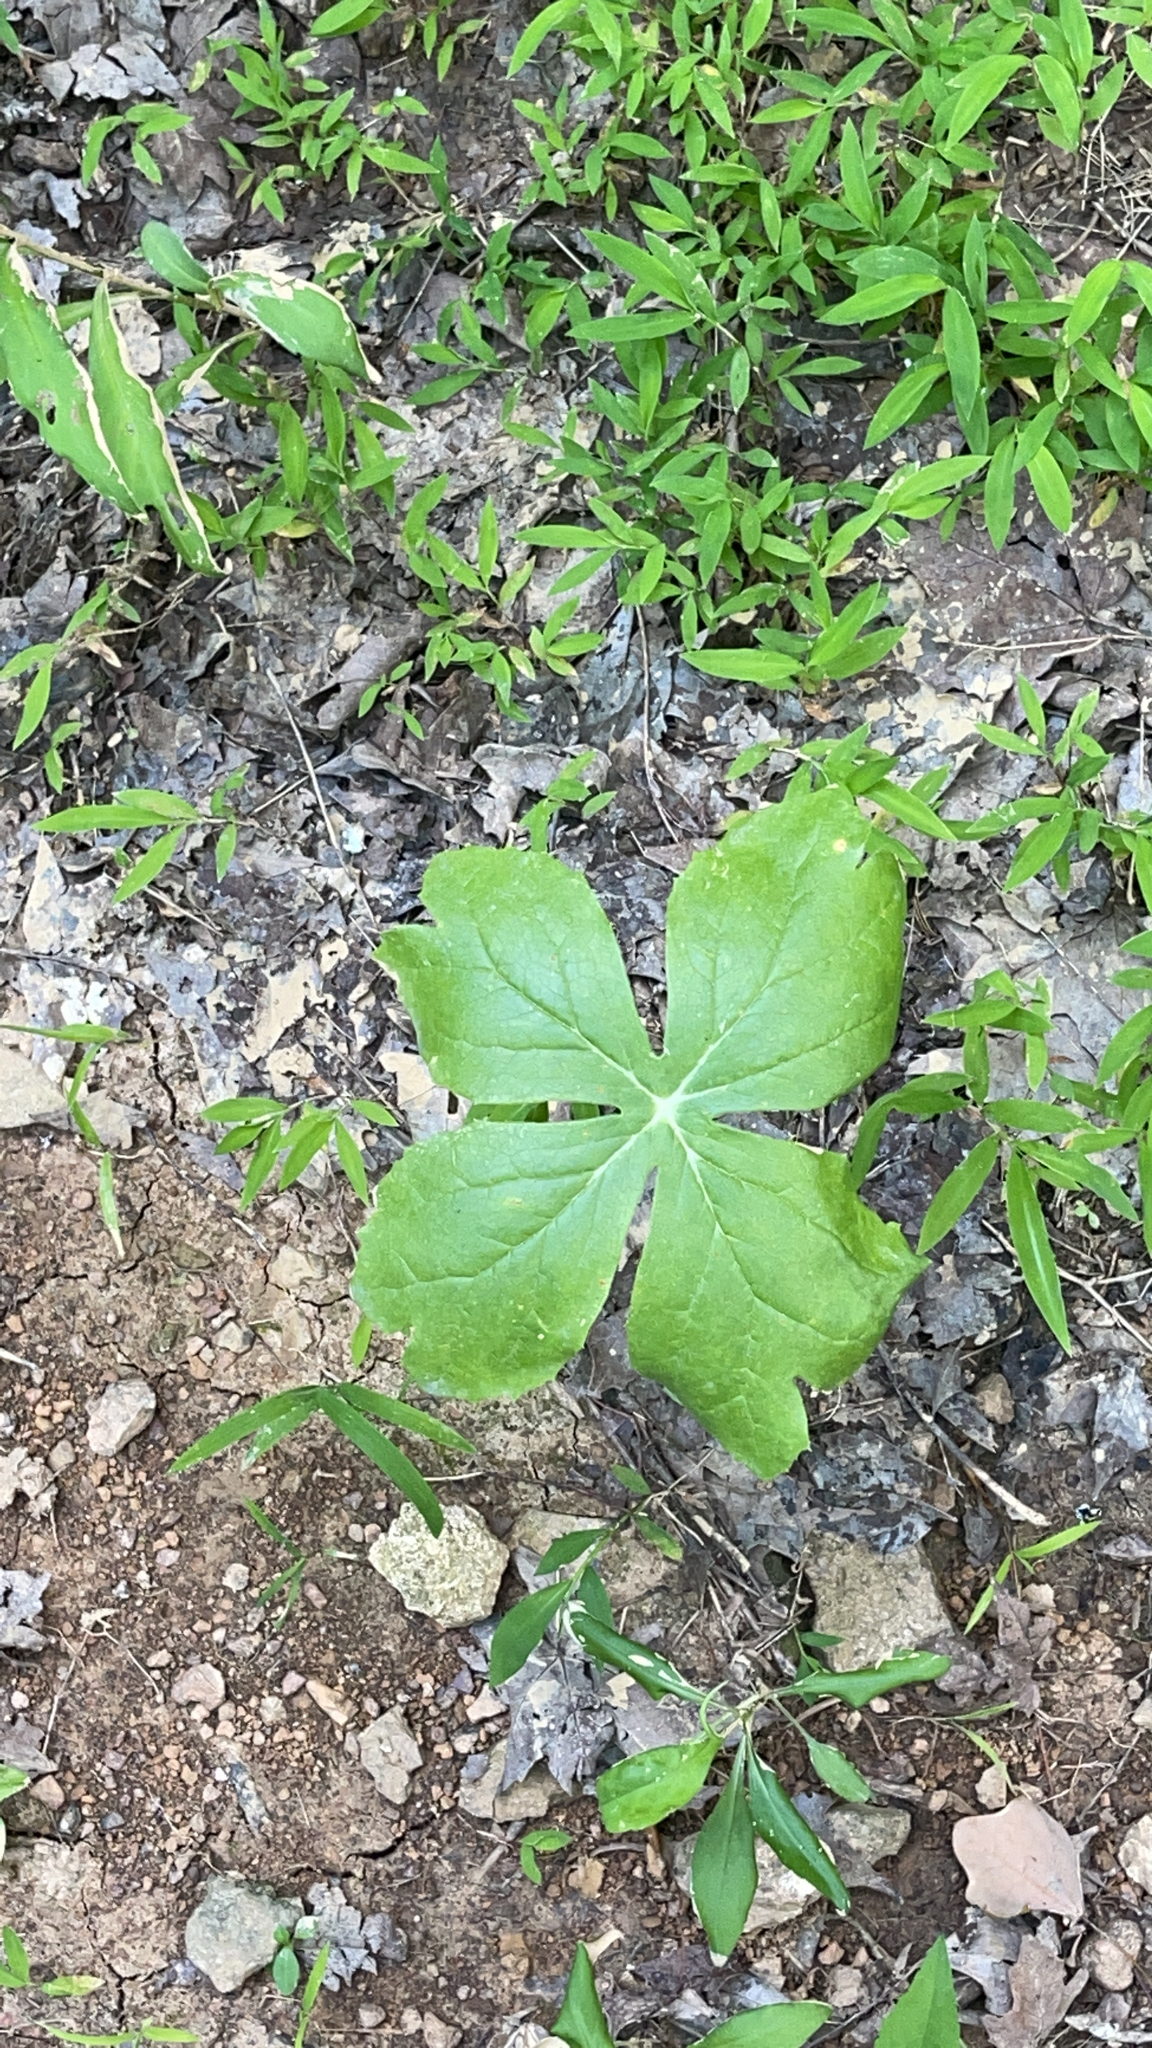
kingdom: Plantae
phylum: Tracheophyta
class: Magnoliopsida
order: Ranunculales
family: Berberidaceae
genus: Podophyllum
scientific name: Podophyllum peltatum
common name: Wild mandrake
